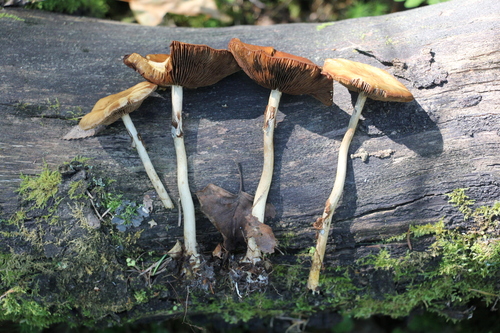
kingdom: Fungi
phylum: Basidiomycota
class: Agaricomycetes
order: Agaricales
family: Strophariaceae
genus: Agrocybe
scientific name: Agrocybe praecox
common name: Spring fieldcap
